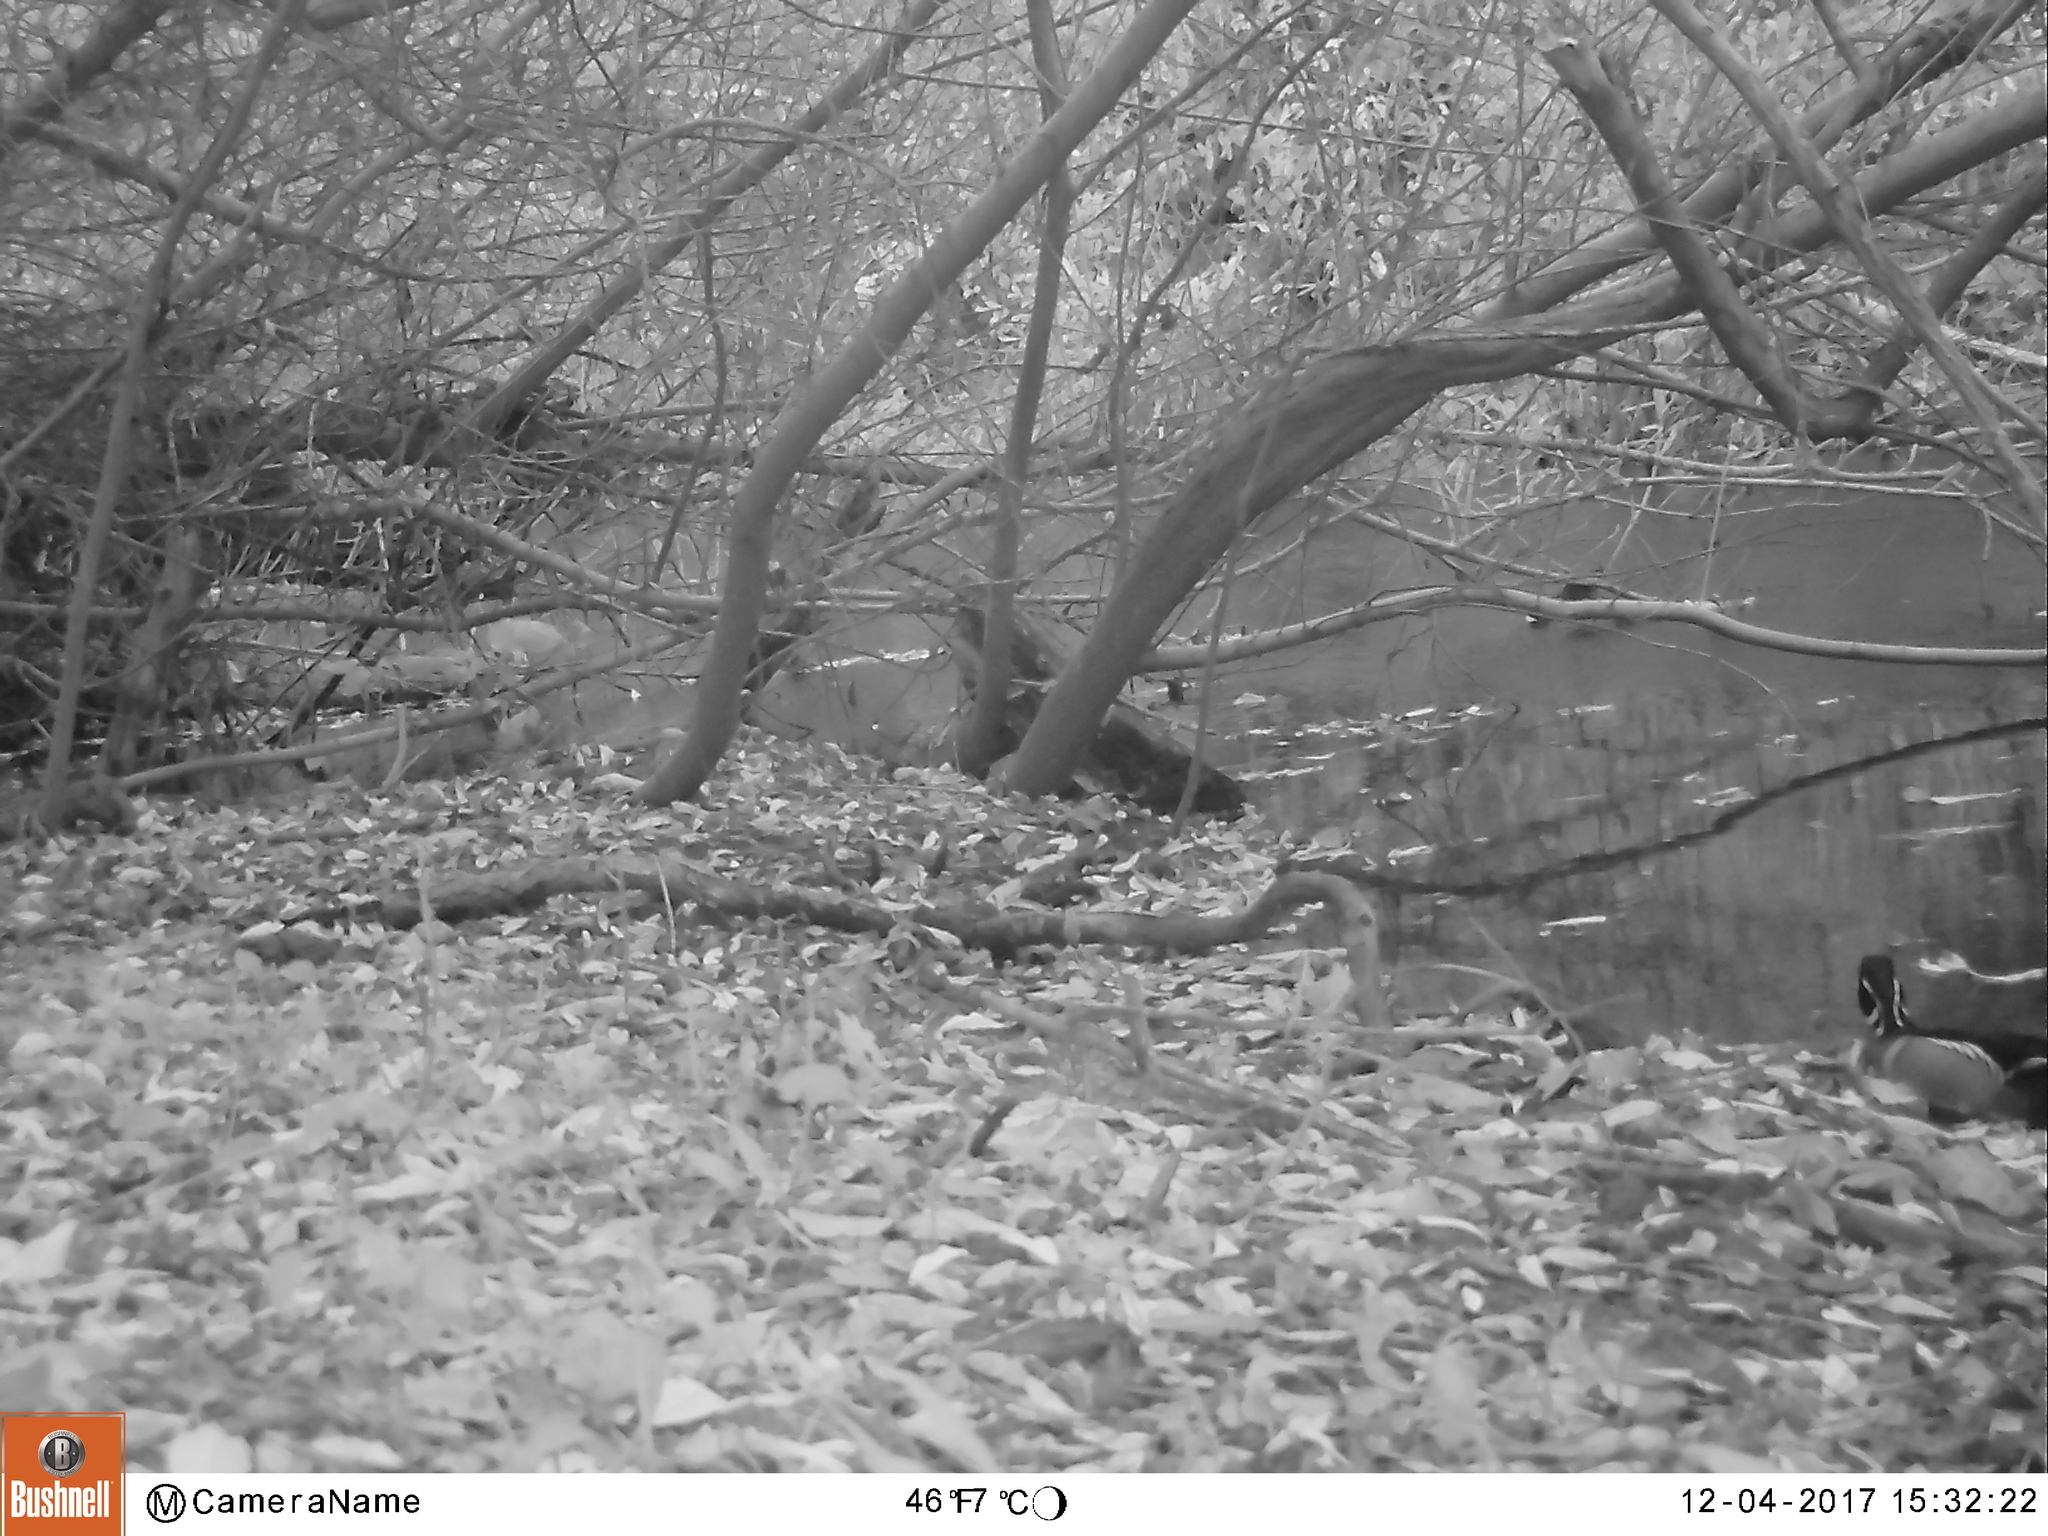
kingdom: Animalia
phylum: Chordata
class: Aves
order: Anseriformes
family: Anatidae
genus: Aix
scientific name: Aix sponsa
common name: Wood duck
